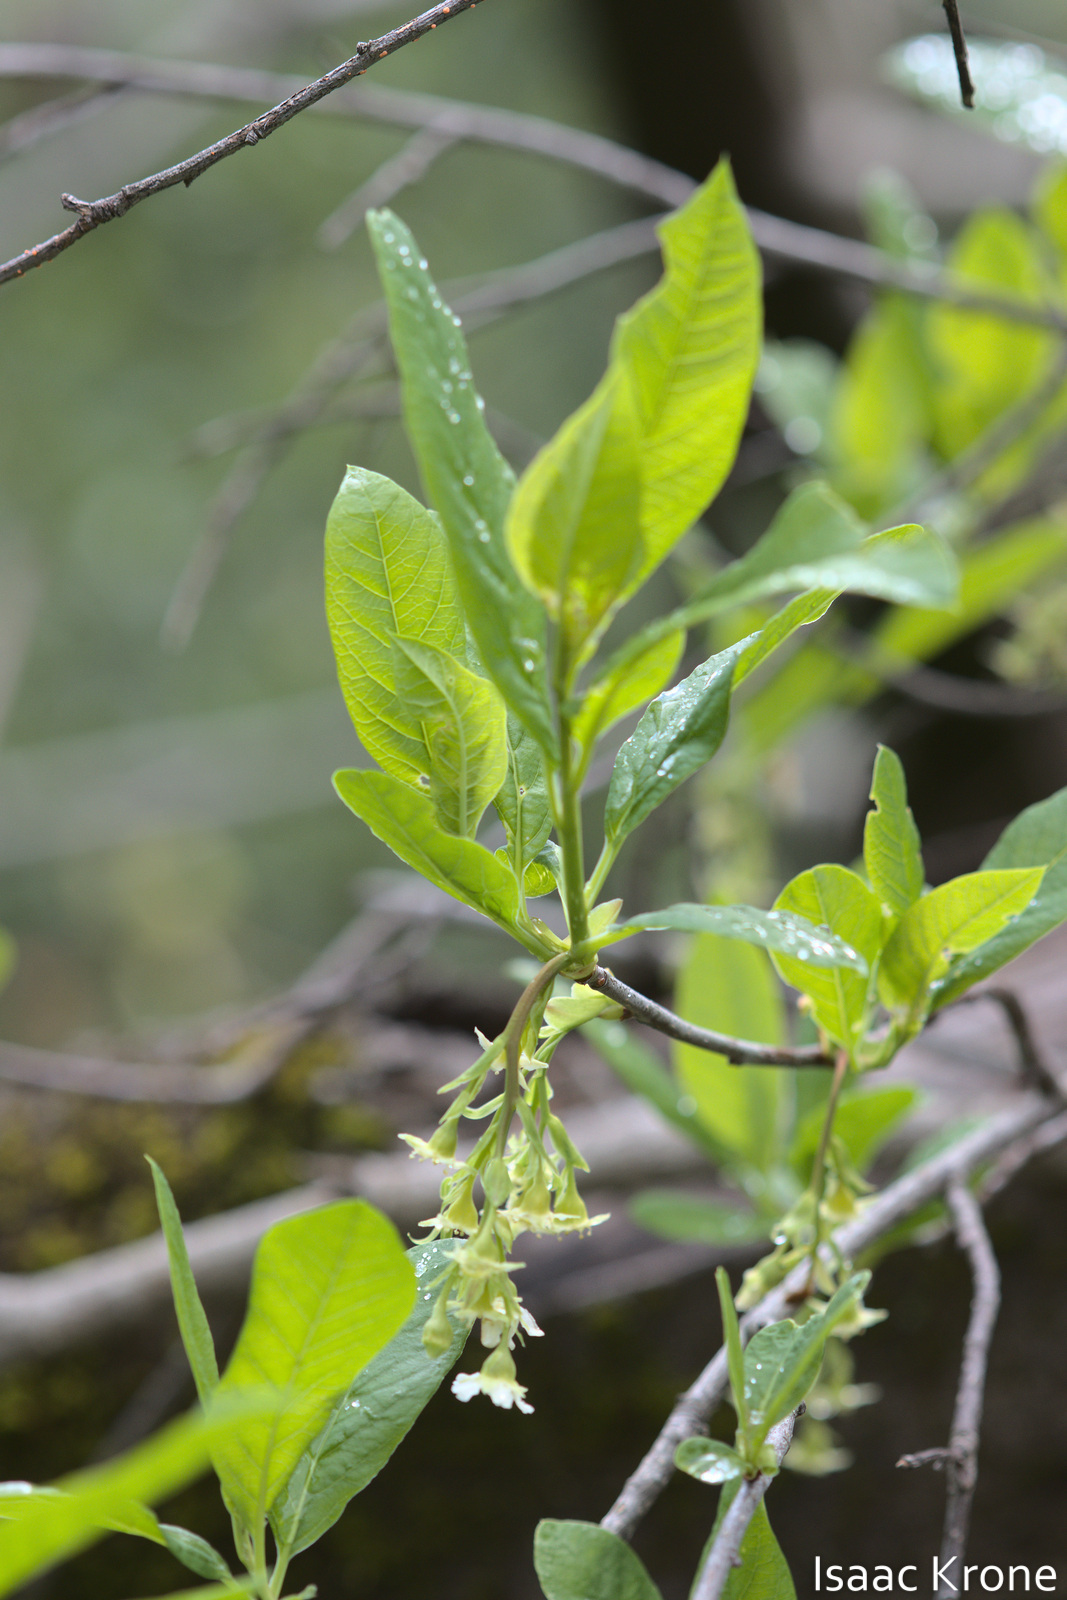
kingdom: Plantae
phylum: Tracheophyta
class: Magnoliopsida
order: Rosales
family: Rosaceae
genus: Oemleria
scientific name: Oemleria cerasiformis
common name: Osoberry
